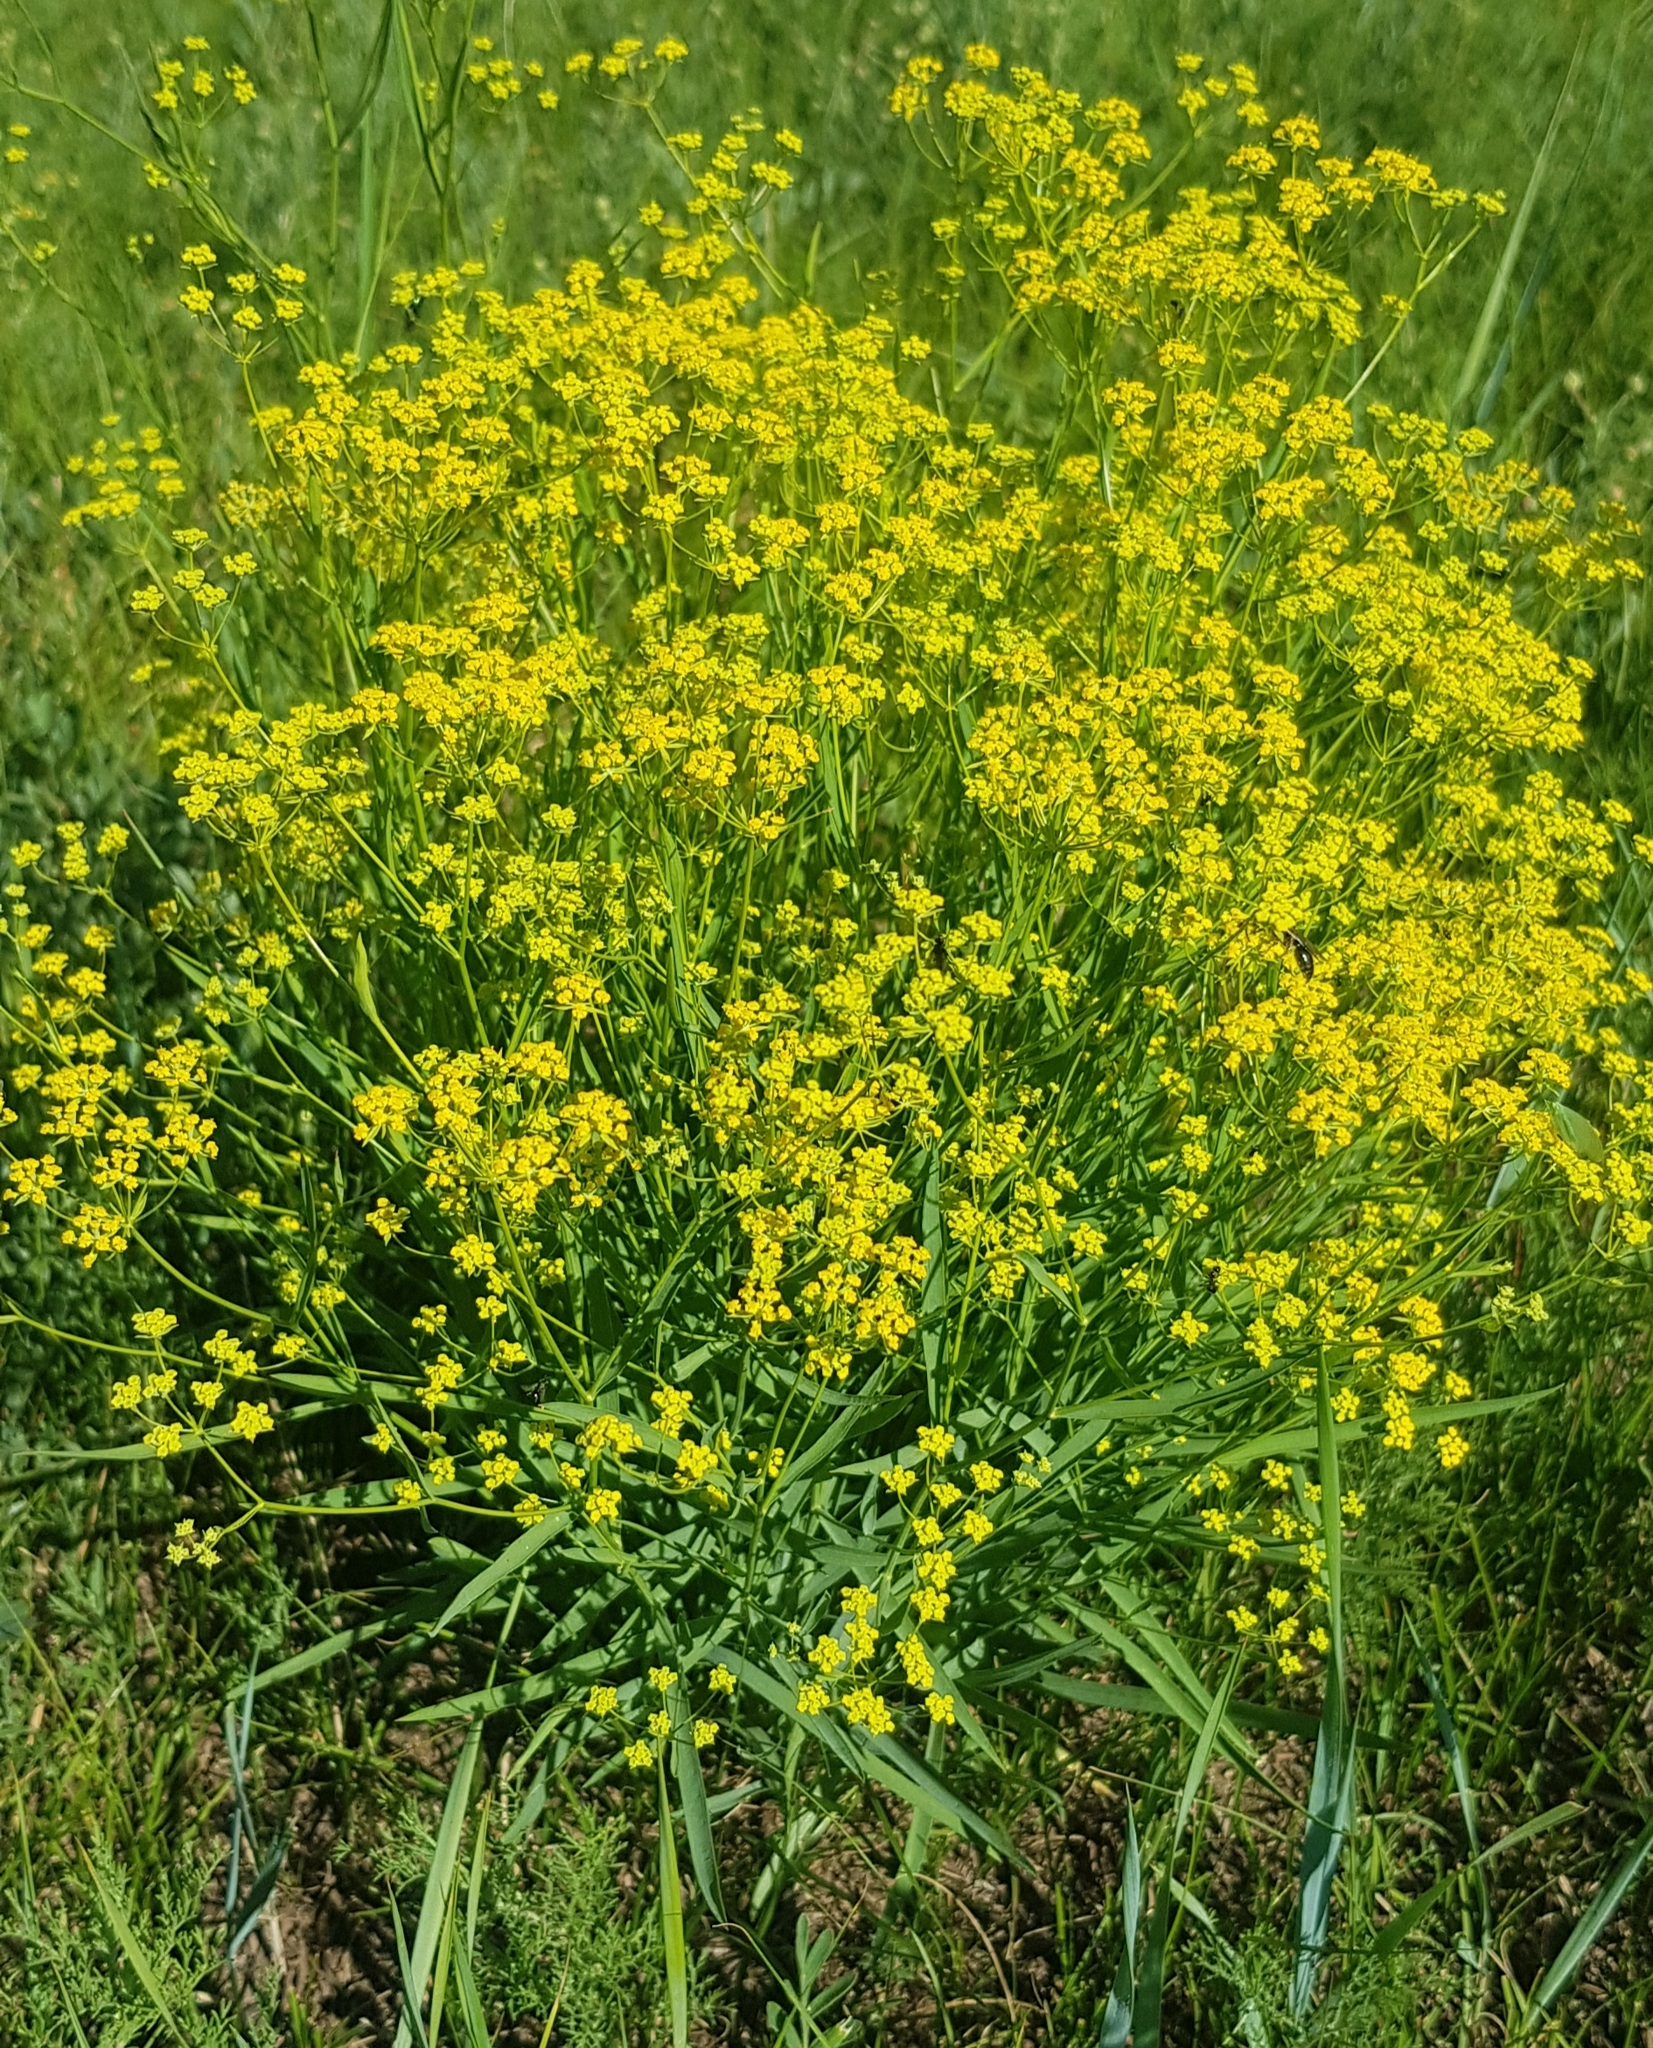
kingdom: Plantae
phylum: Tracheophyta
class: Magnoliopsida
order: Apiales
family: Apiaceae
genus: Bupleurum
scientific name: Bupleurum sibiricum
